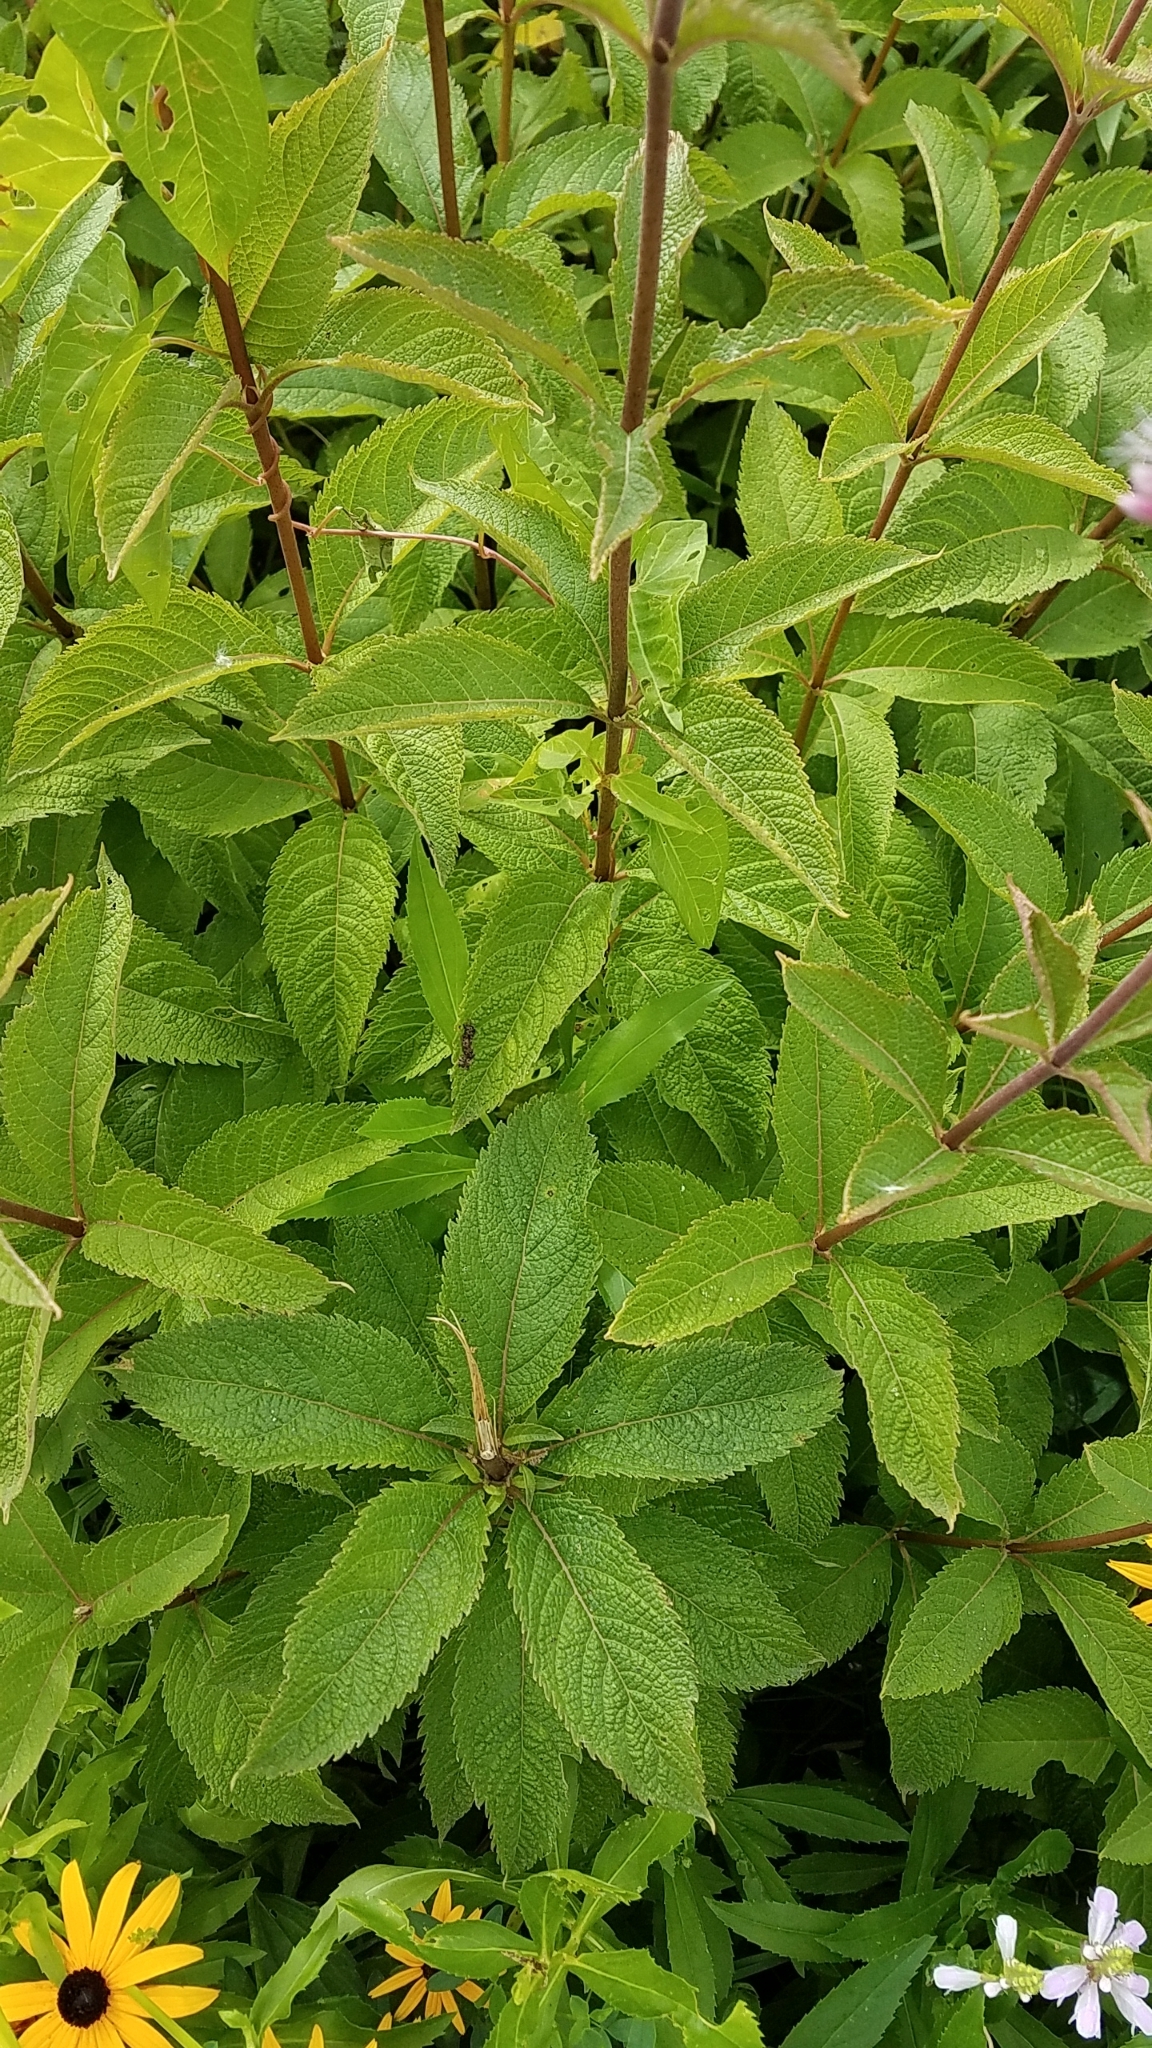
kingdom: Plantae
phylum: Tracheophyta
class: Magnoliopsida
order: Asterales
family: Asteraceae
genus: Eutrochium
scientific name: Eutrochium maculatum
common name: Spotted joe pye weed
